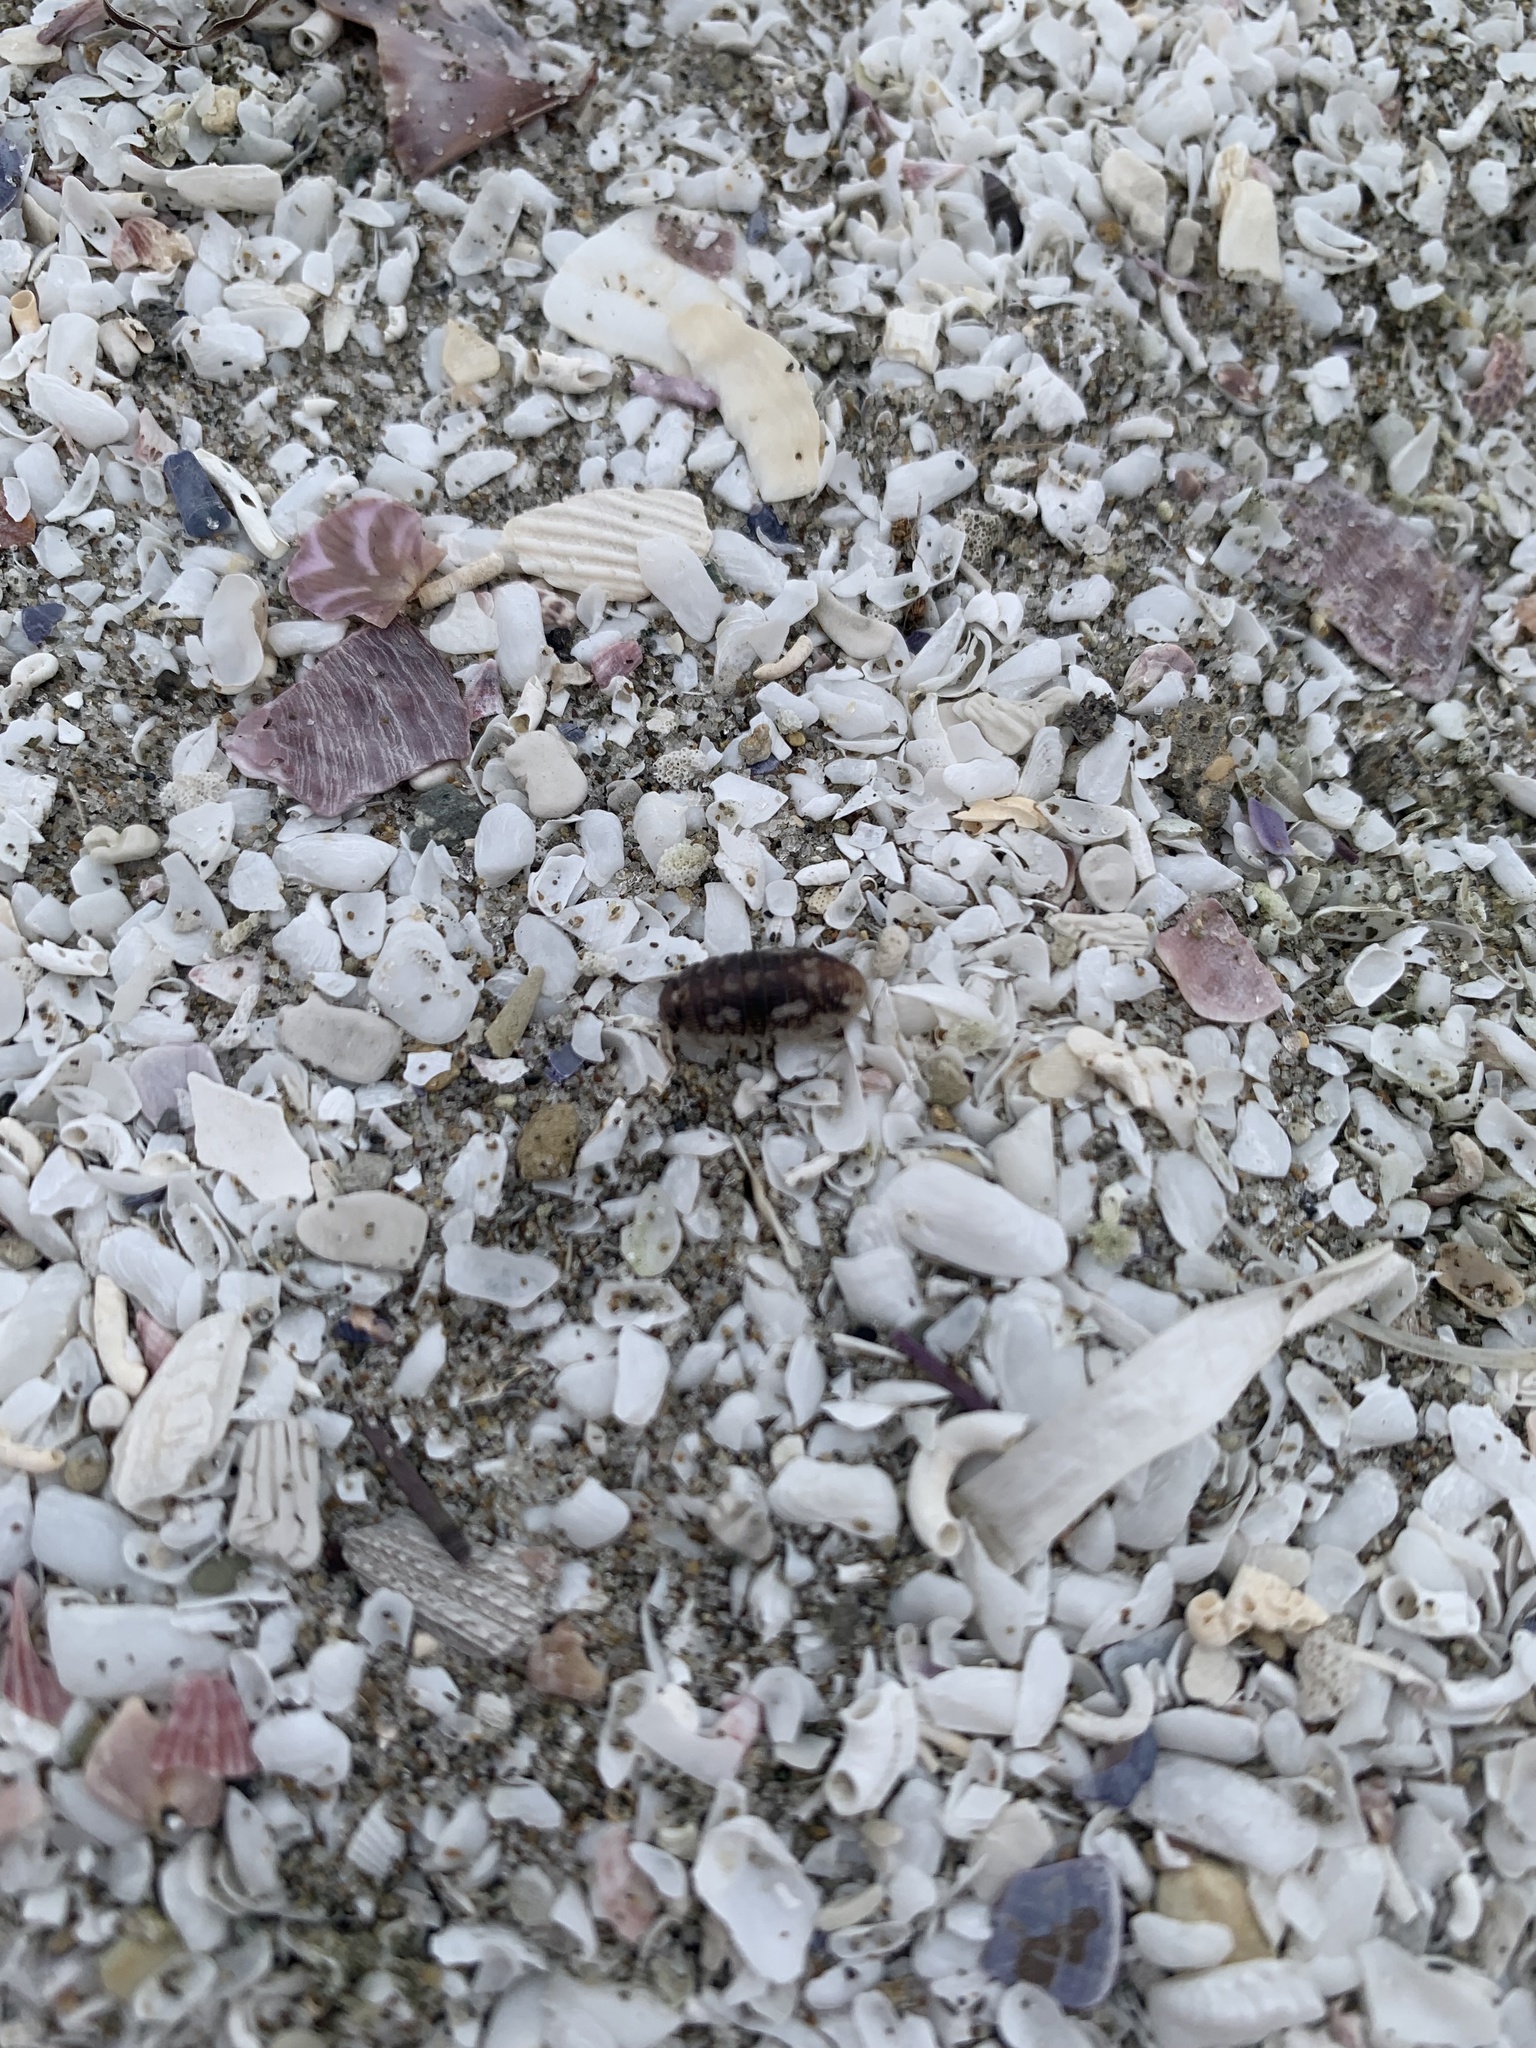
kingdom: Animalia
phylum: Arthropoda
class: Malacostraca
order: Isopoda
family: Tylidae
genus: Tylos
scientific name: Tylos granuliferus
